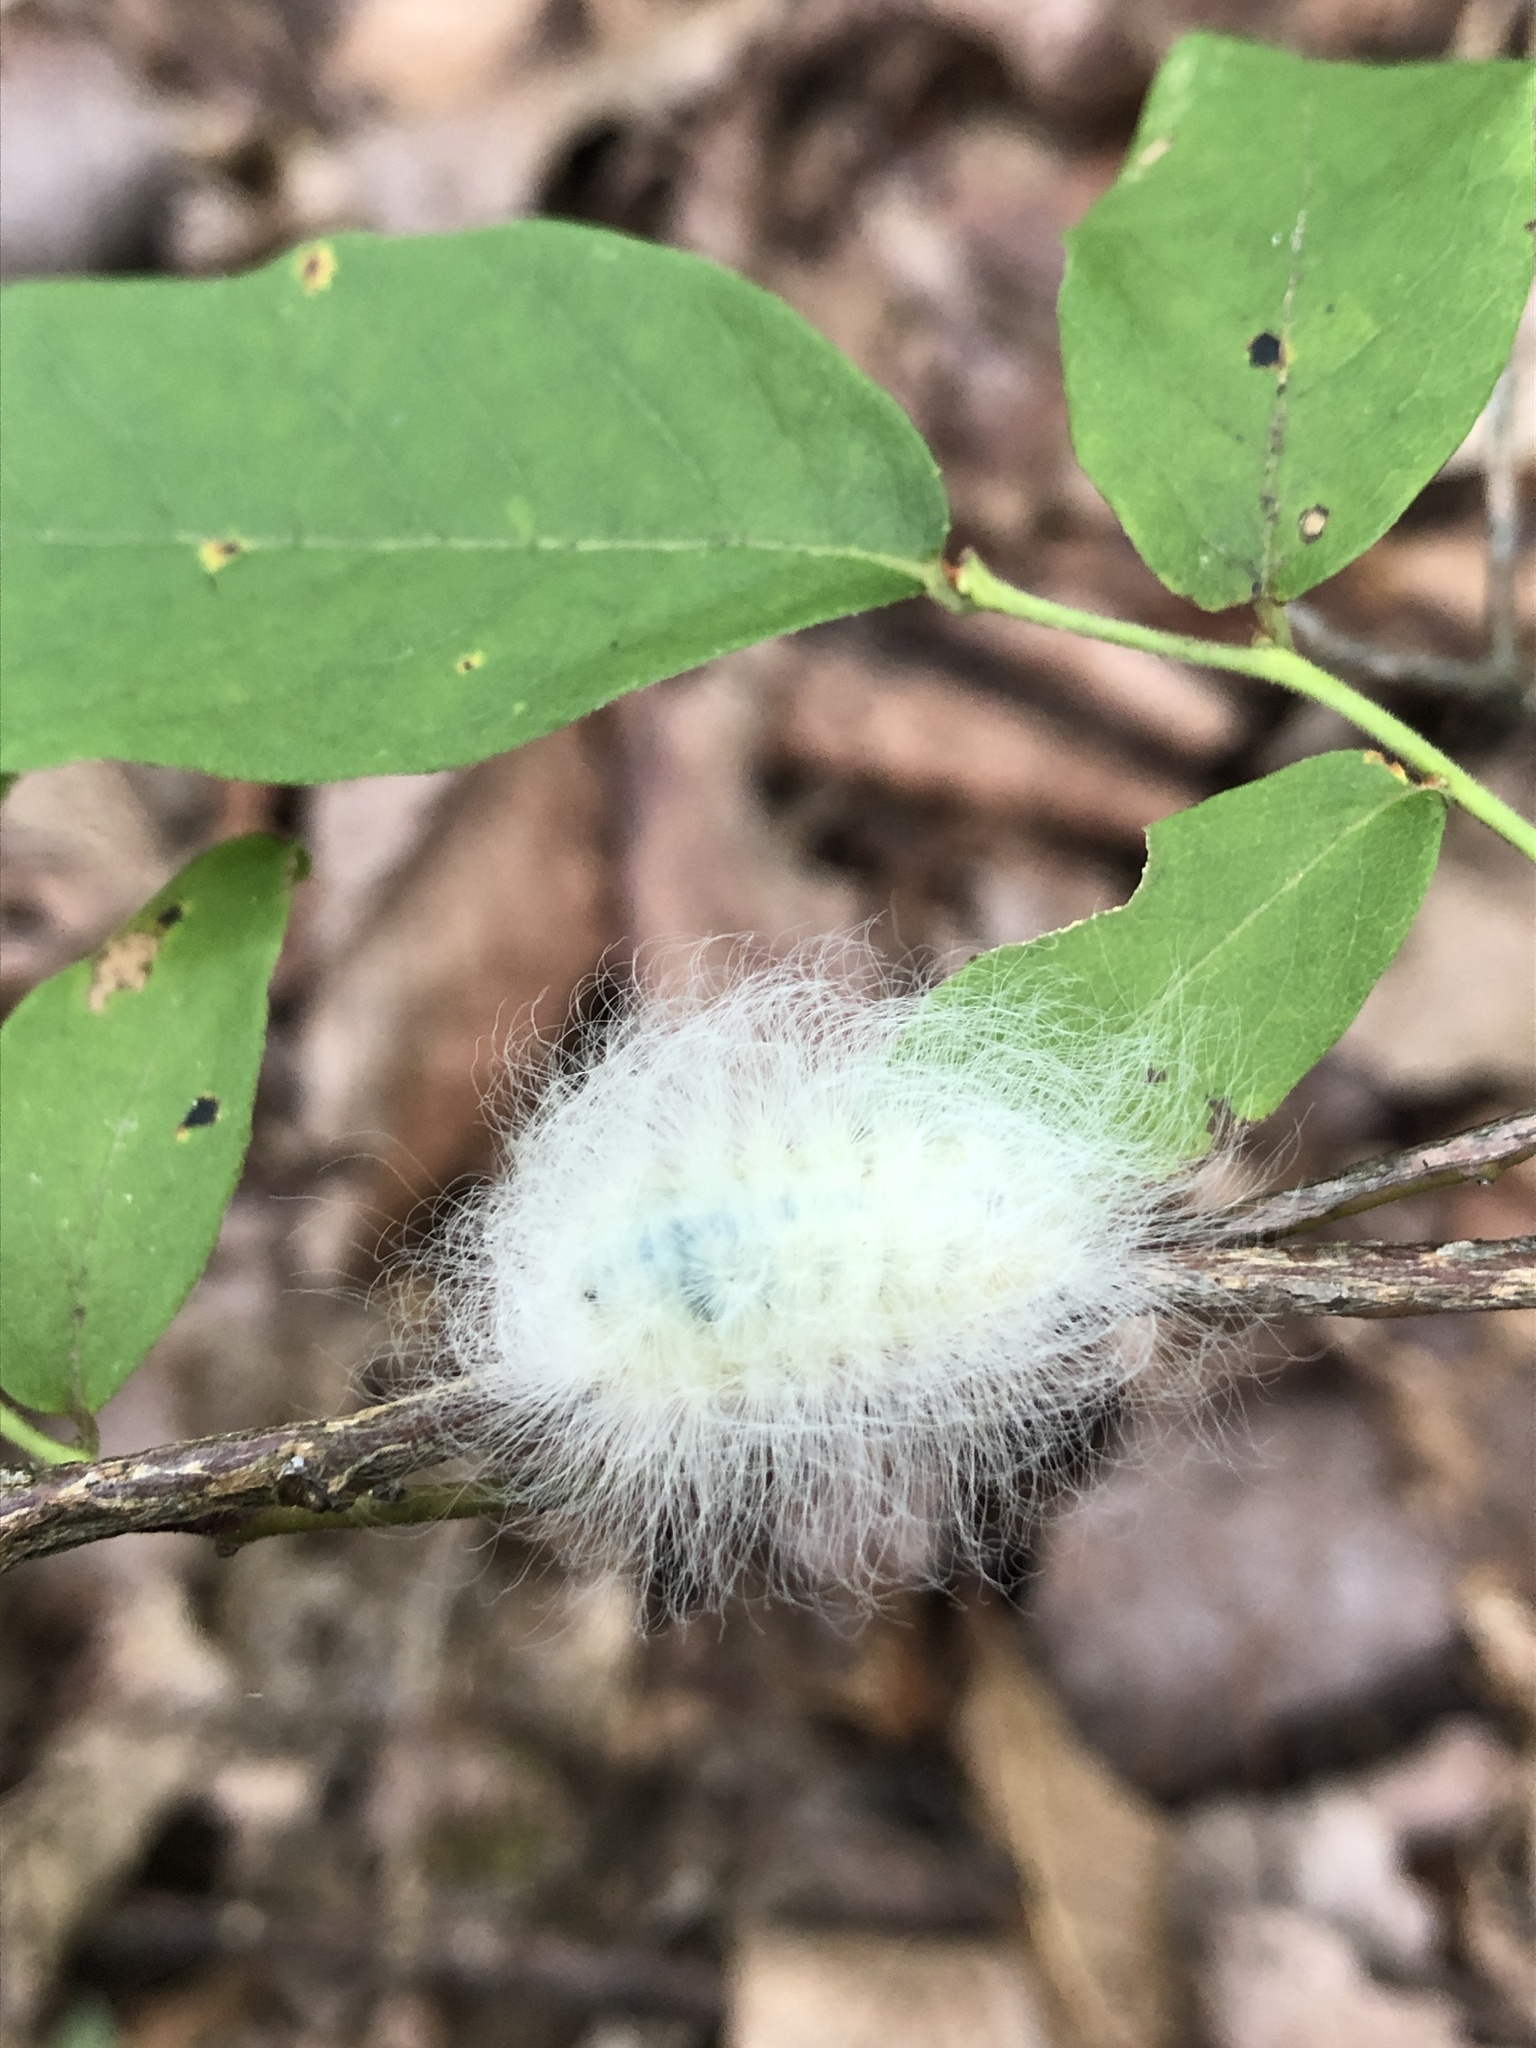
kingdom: Animalia
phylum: Arthropoda
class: Insecta
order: Lepidoptera
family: Megalopygidae
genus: Megalopyge
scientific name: Megalopyge crispata
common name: Black-waved flannel moth
